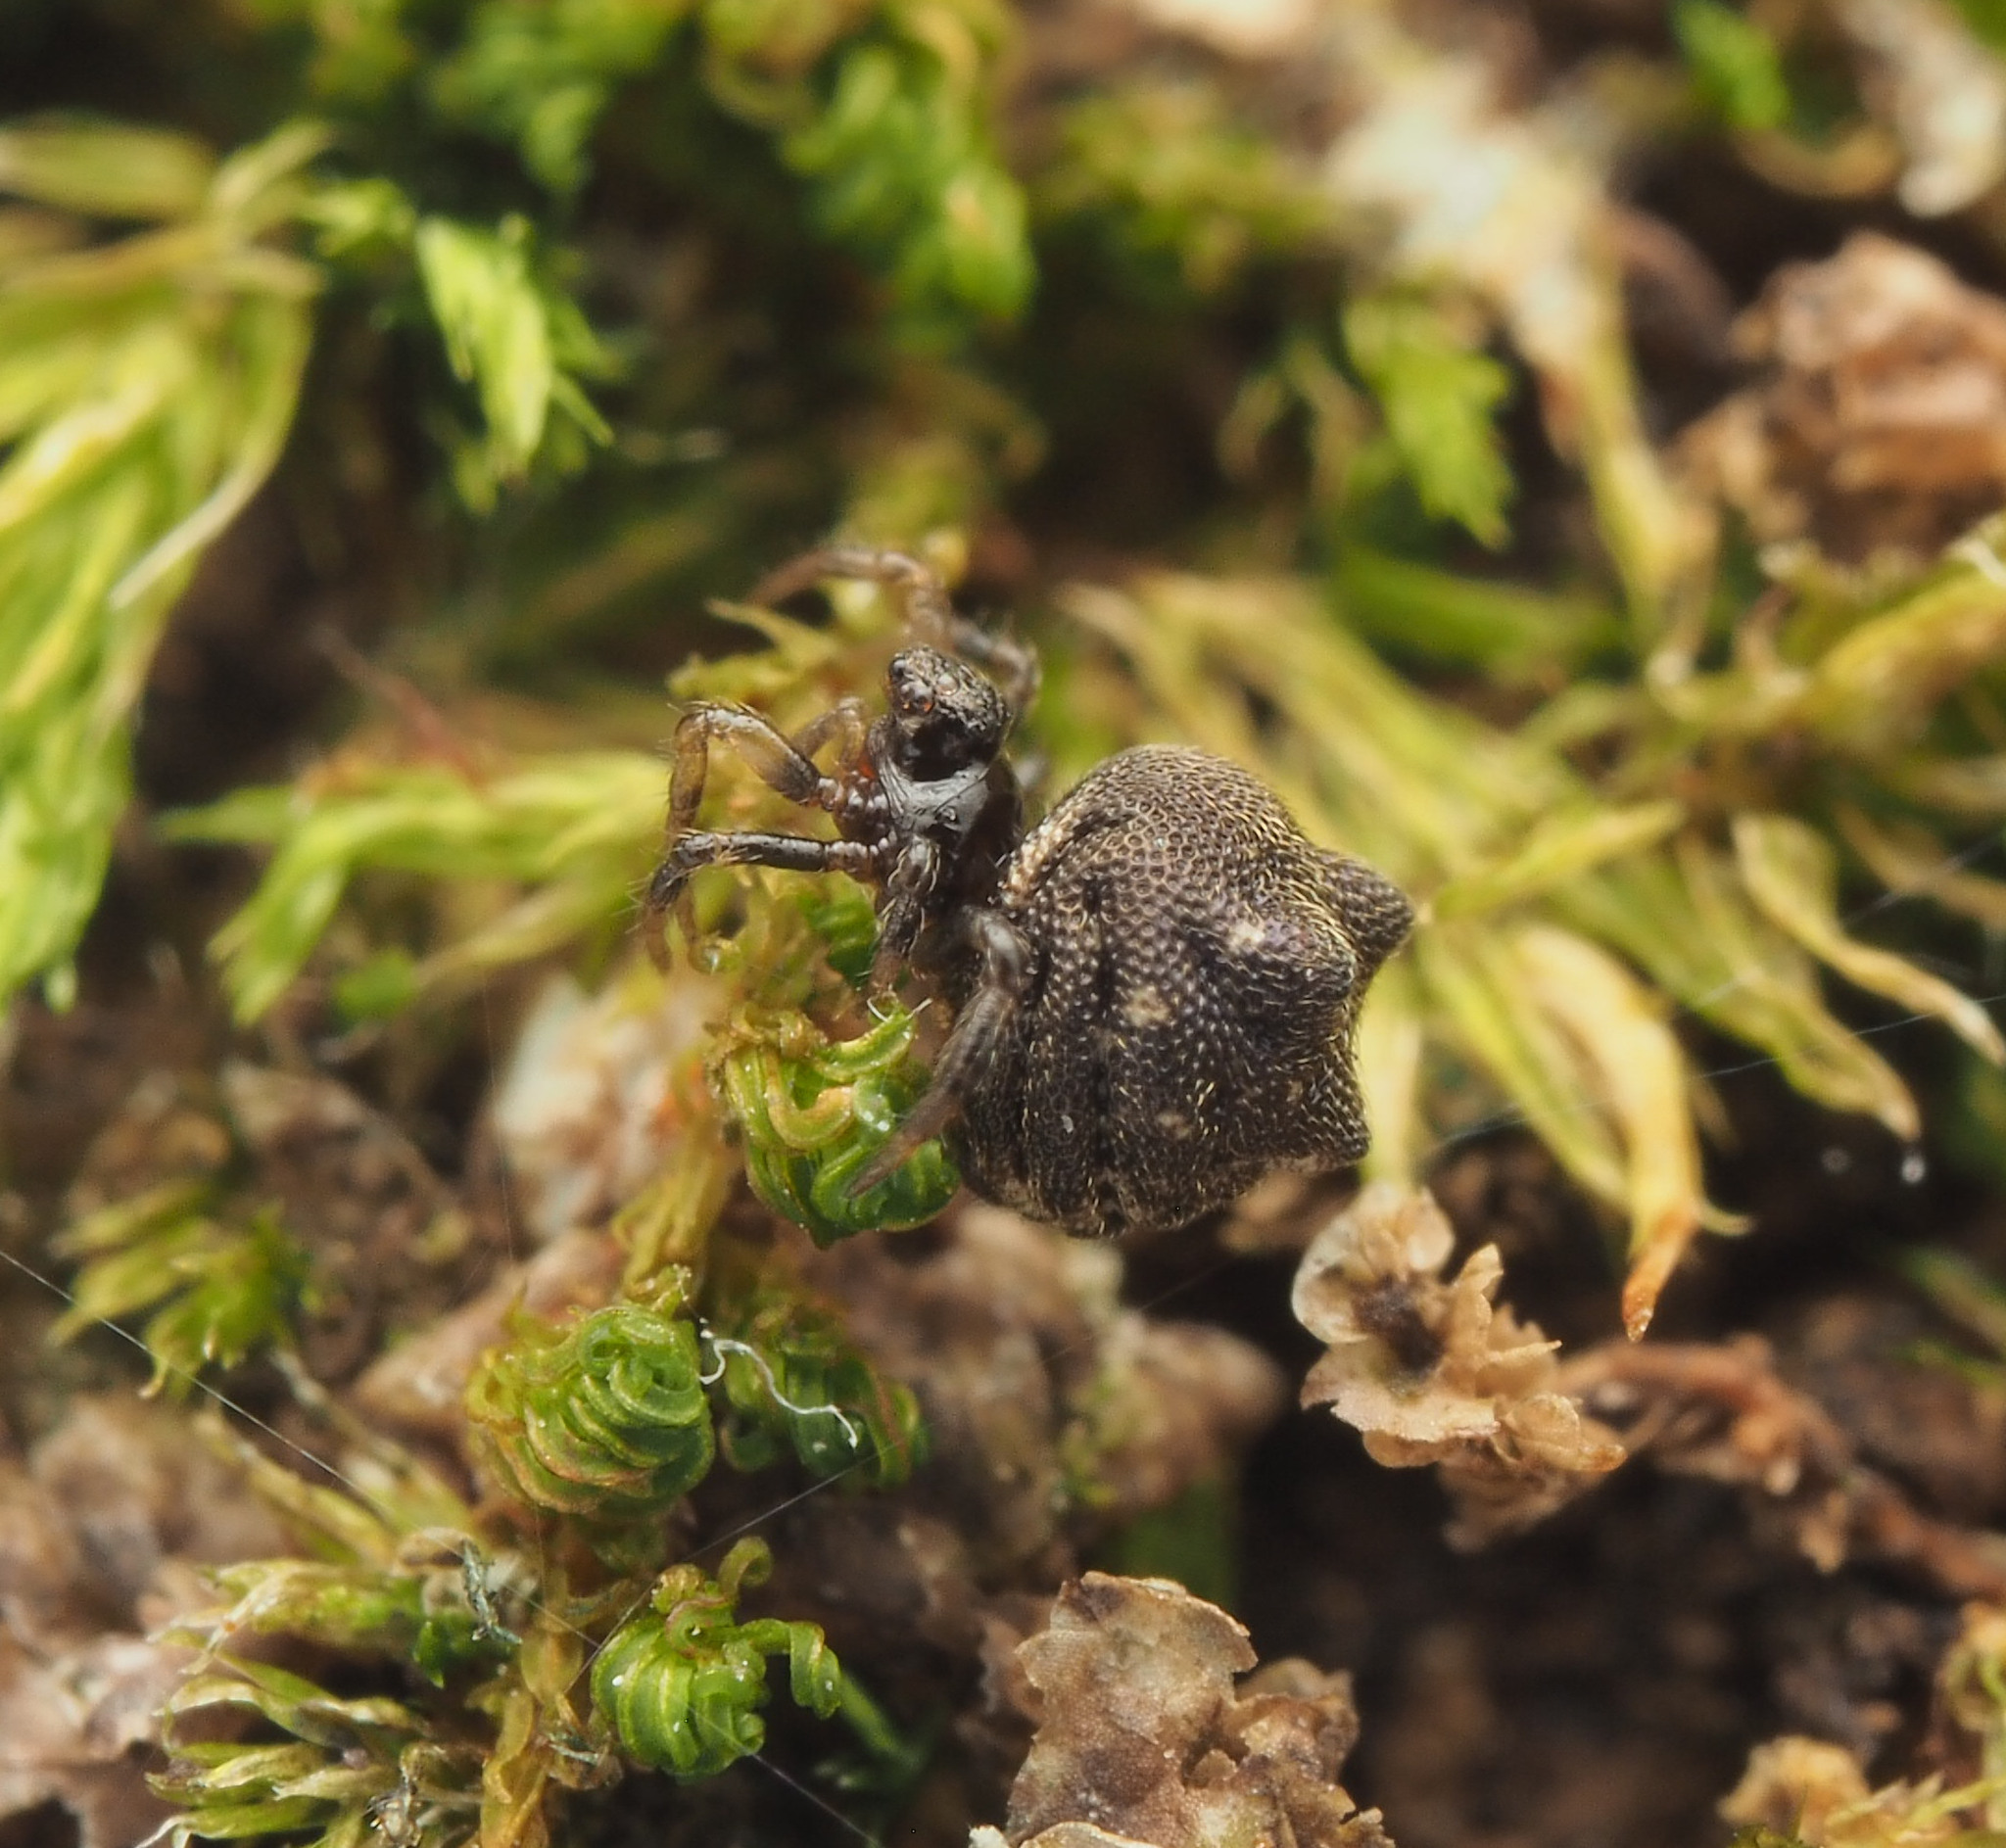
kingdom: Animalia
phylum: Arthropoda
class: Arachnida
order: Araneae
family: Theridiidae
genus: Phoroncidia
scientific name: Phoroncidia trituberculata
